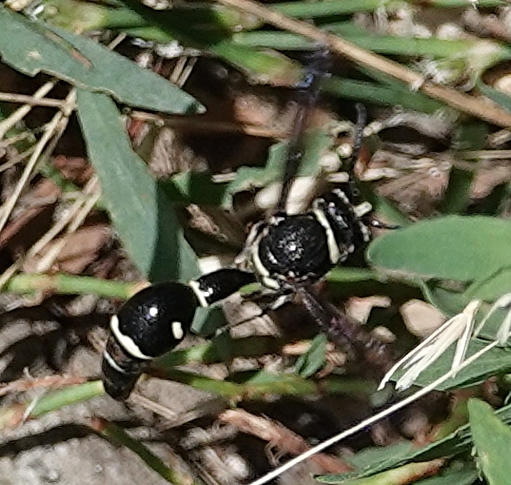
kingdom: Animalia
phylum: Arthropoda
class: Insecta
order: Hymenoptera
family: Vespidae
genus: Eumenes
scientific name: Eumenes fraternus
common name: Fraternal potter wasp
